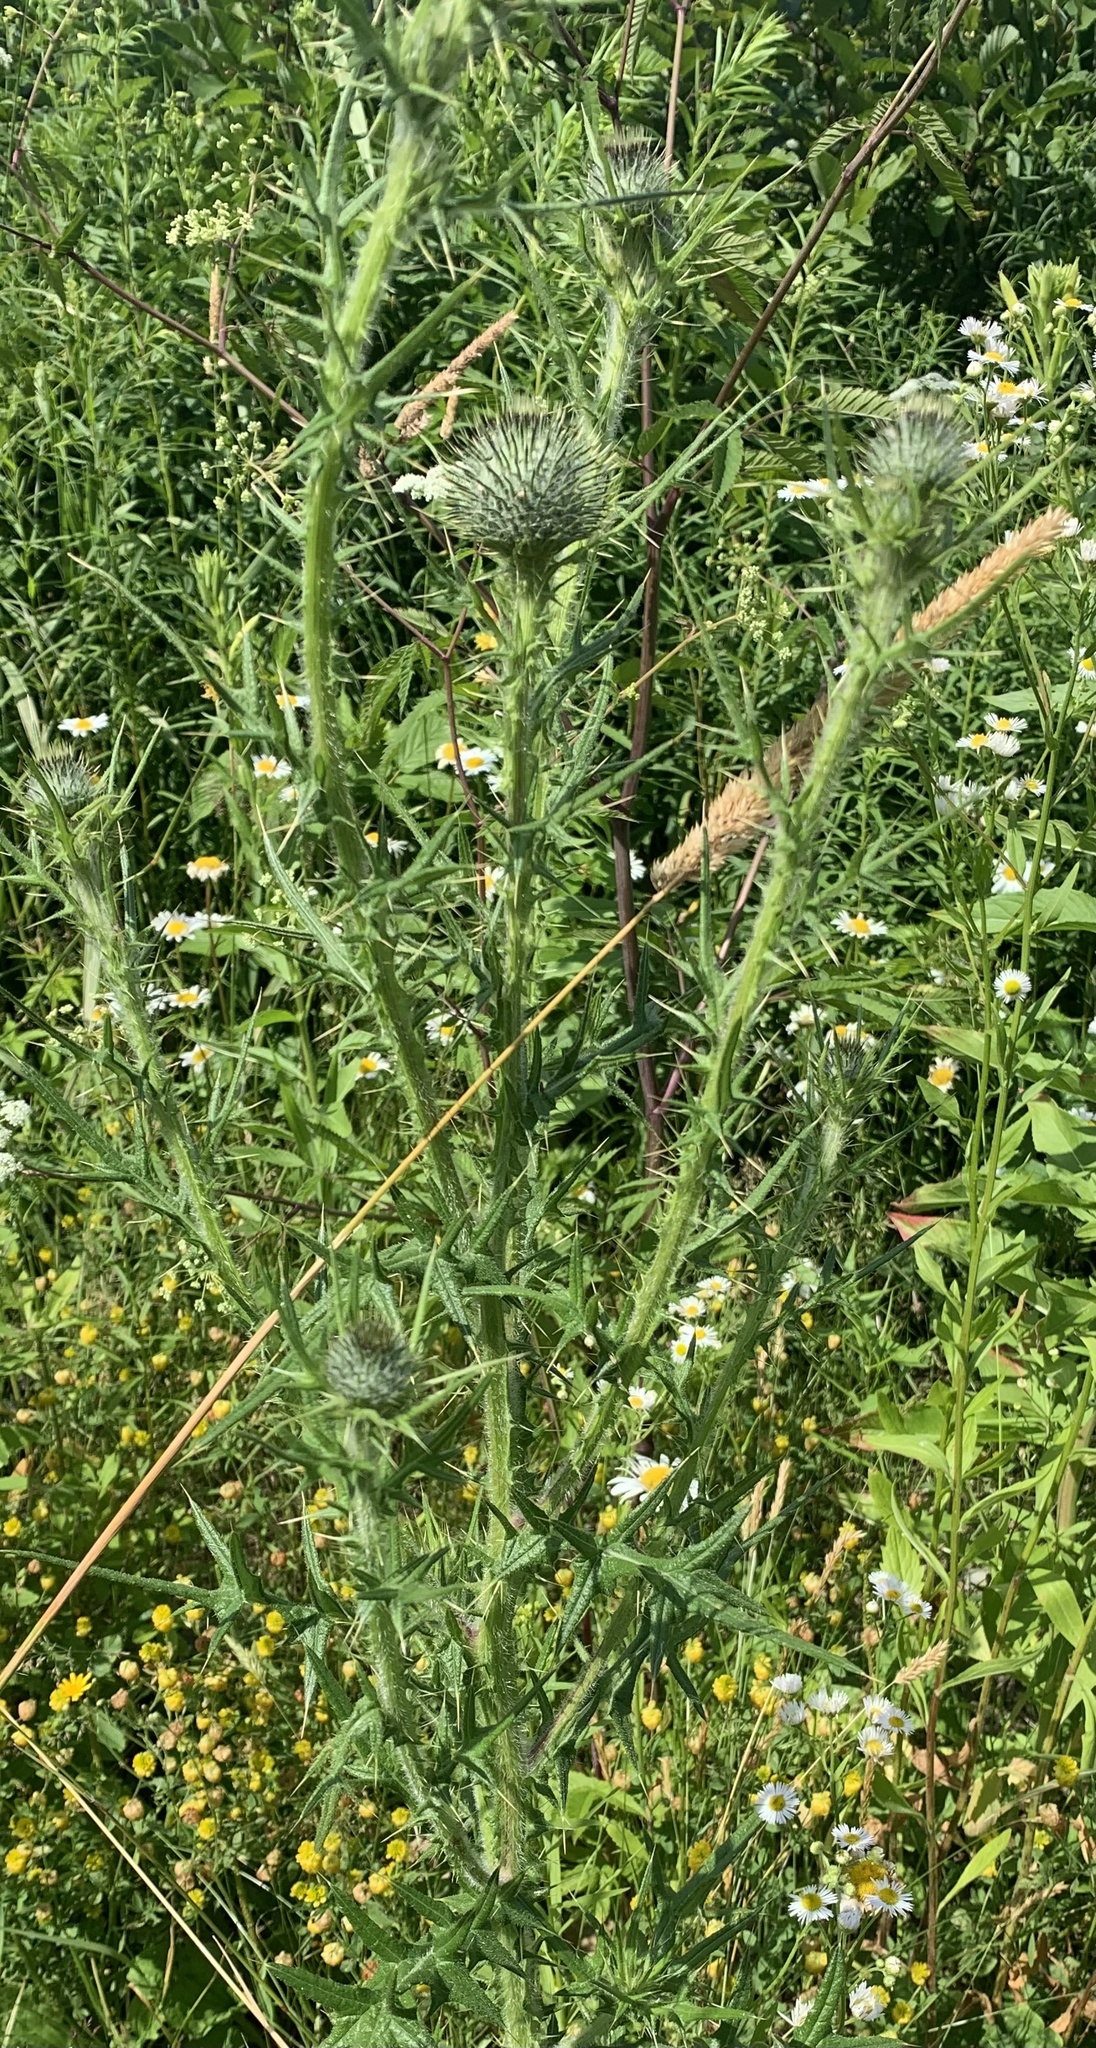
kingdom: Plantae
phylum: Tracheophyta
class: Magnoliopsida
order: Asterales
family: Asteraceae
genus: Cirsium
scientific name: Cirsium vulgare
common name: Bull thistle
